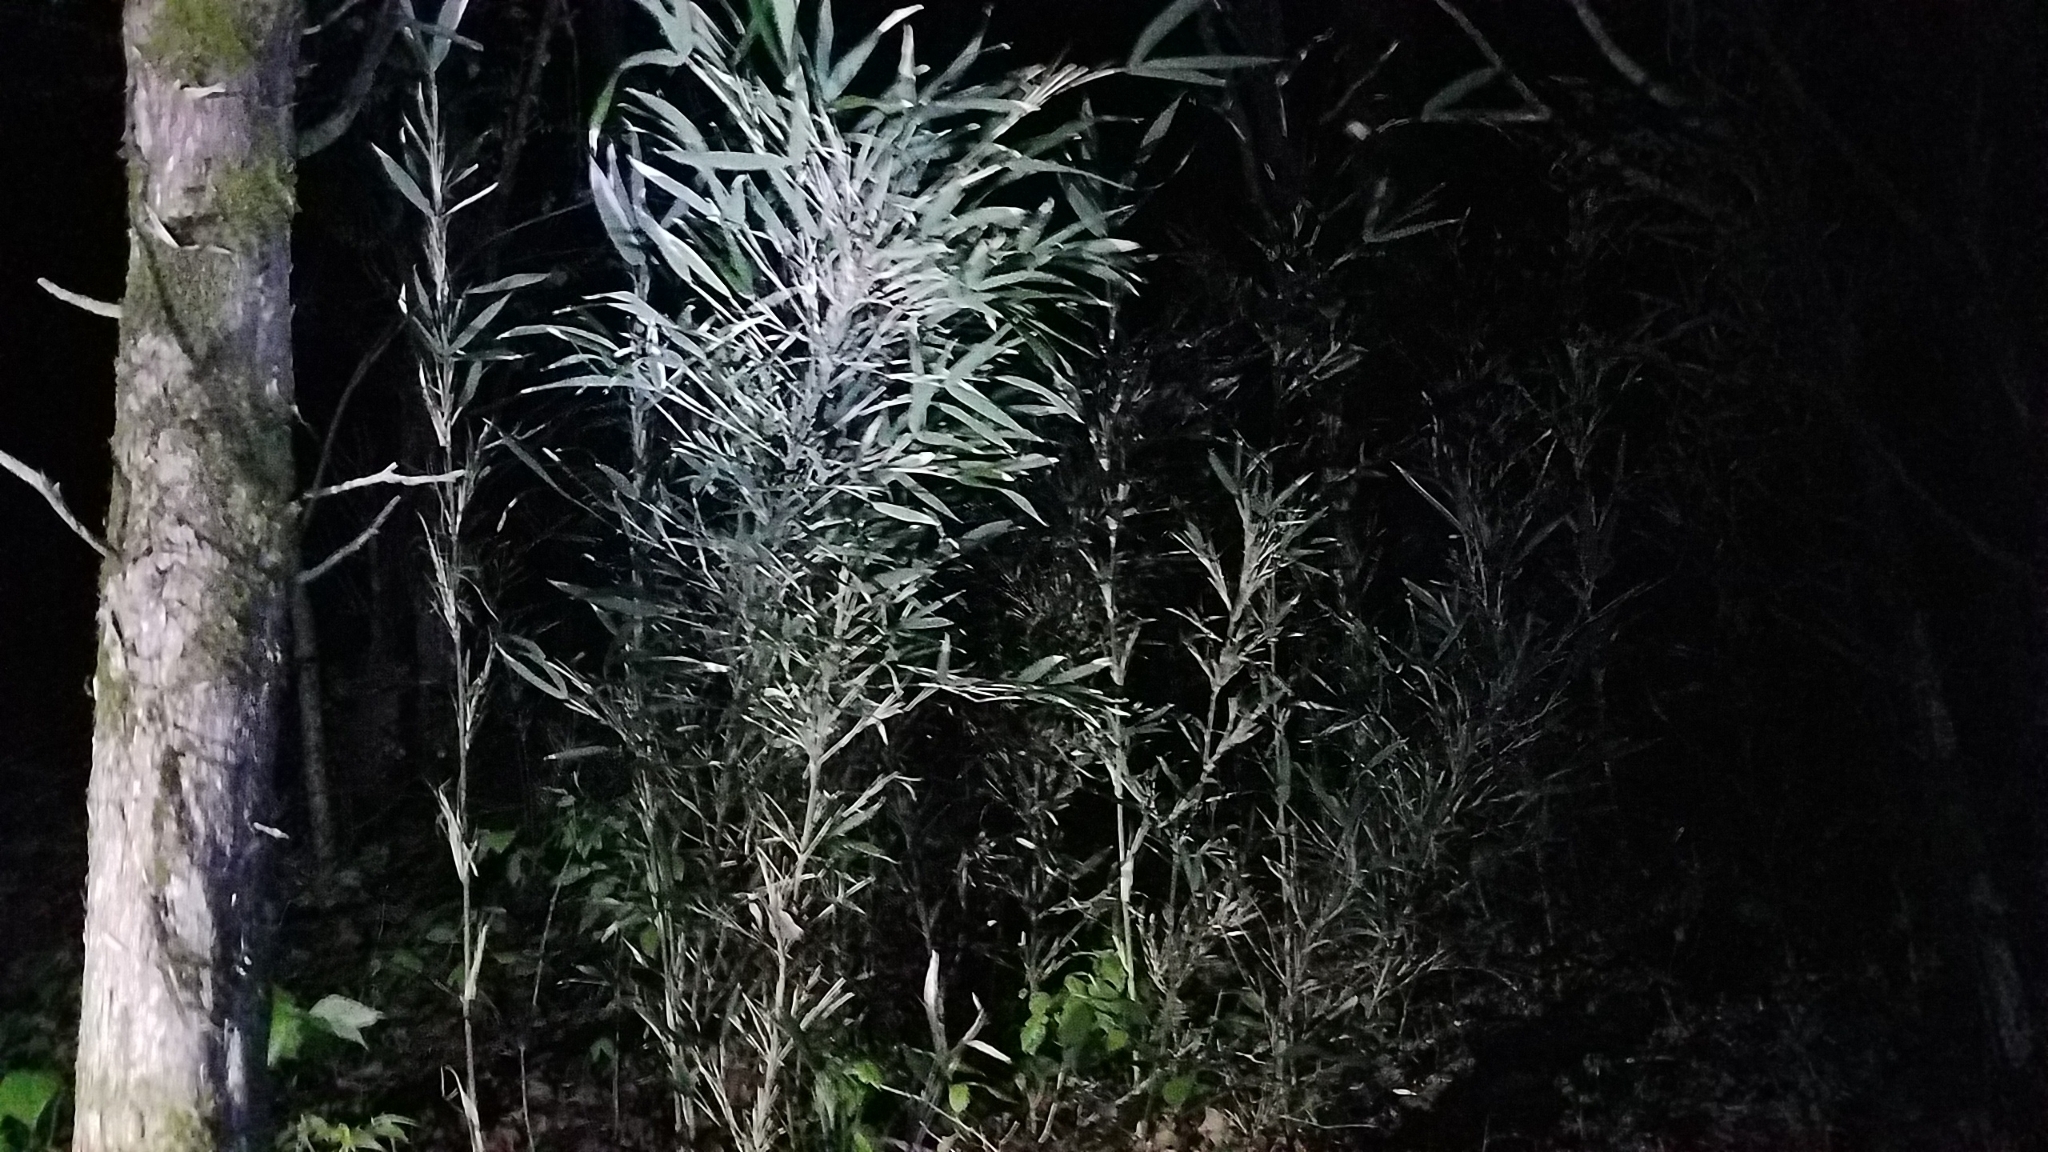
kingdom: Plantae
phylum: Tracheophyta
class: Liliopsida
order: Poales
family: Poaceae
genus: Arundinaria
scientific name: Arundinaria gigantea
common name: Giant cane
